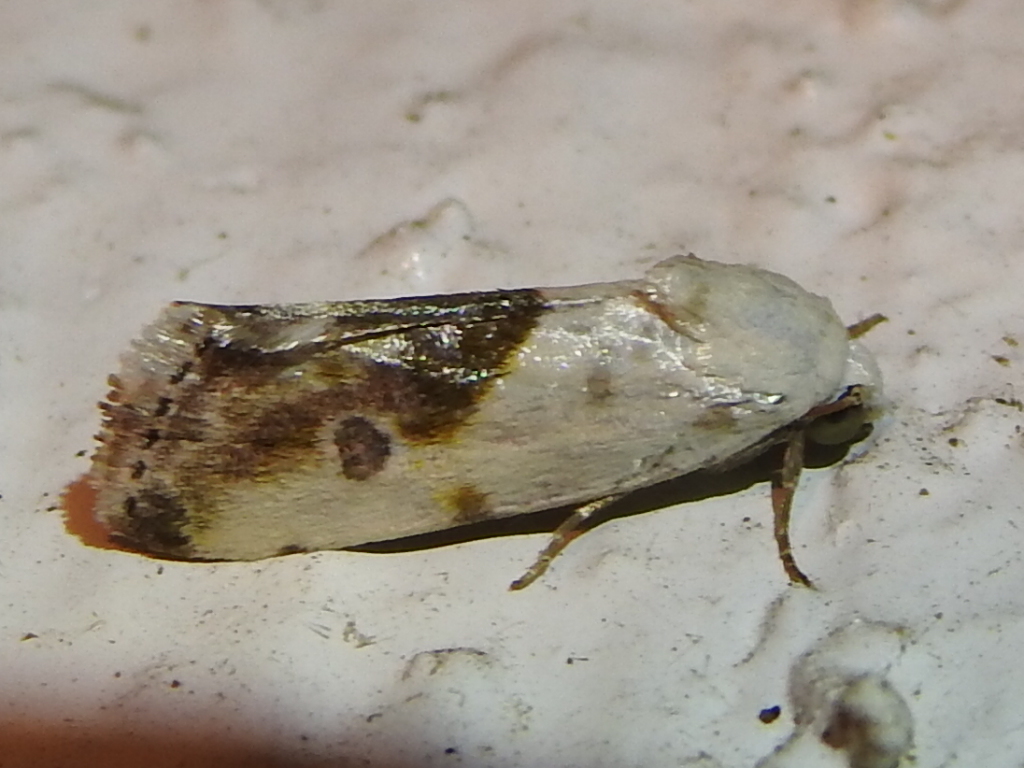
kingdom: Animalia
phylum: Arthropoda
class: Insecta
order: Lepidoptera
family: Noctuidae
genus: Acontia
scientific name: Acontia candefacta
